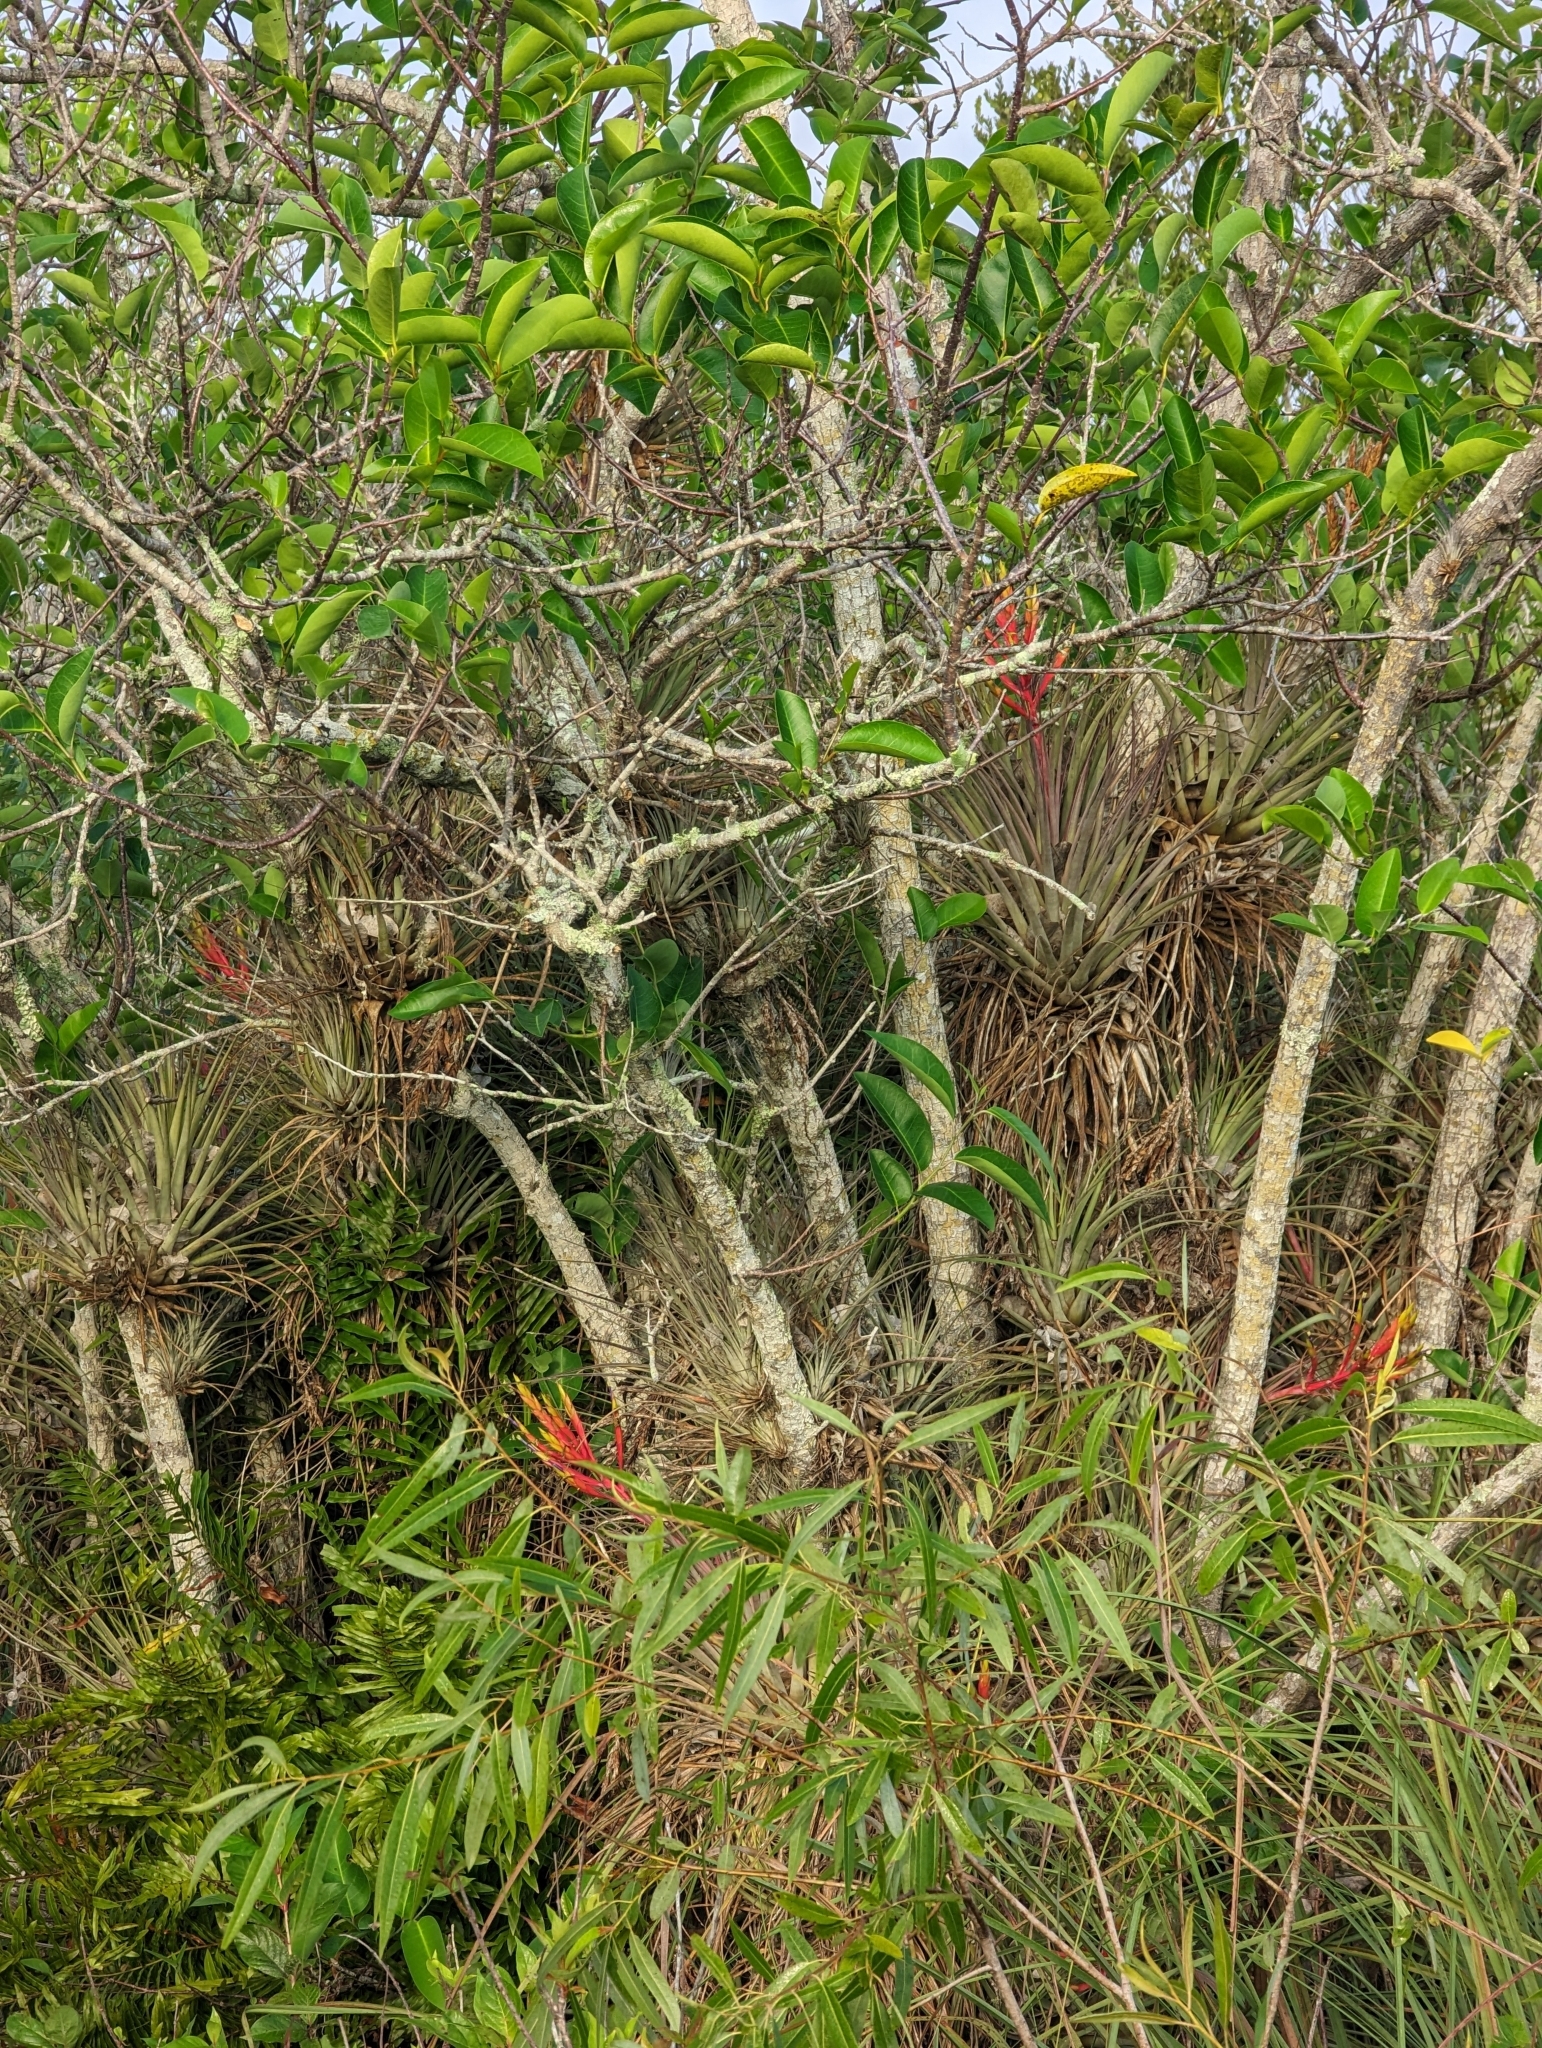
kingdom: Plantae
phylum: Tracheophyta
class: Liliopsida
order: Poales
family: Bromeliaceae
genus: Tillandsia
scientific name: Tillandsia fasciculata
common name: Giant airplant
